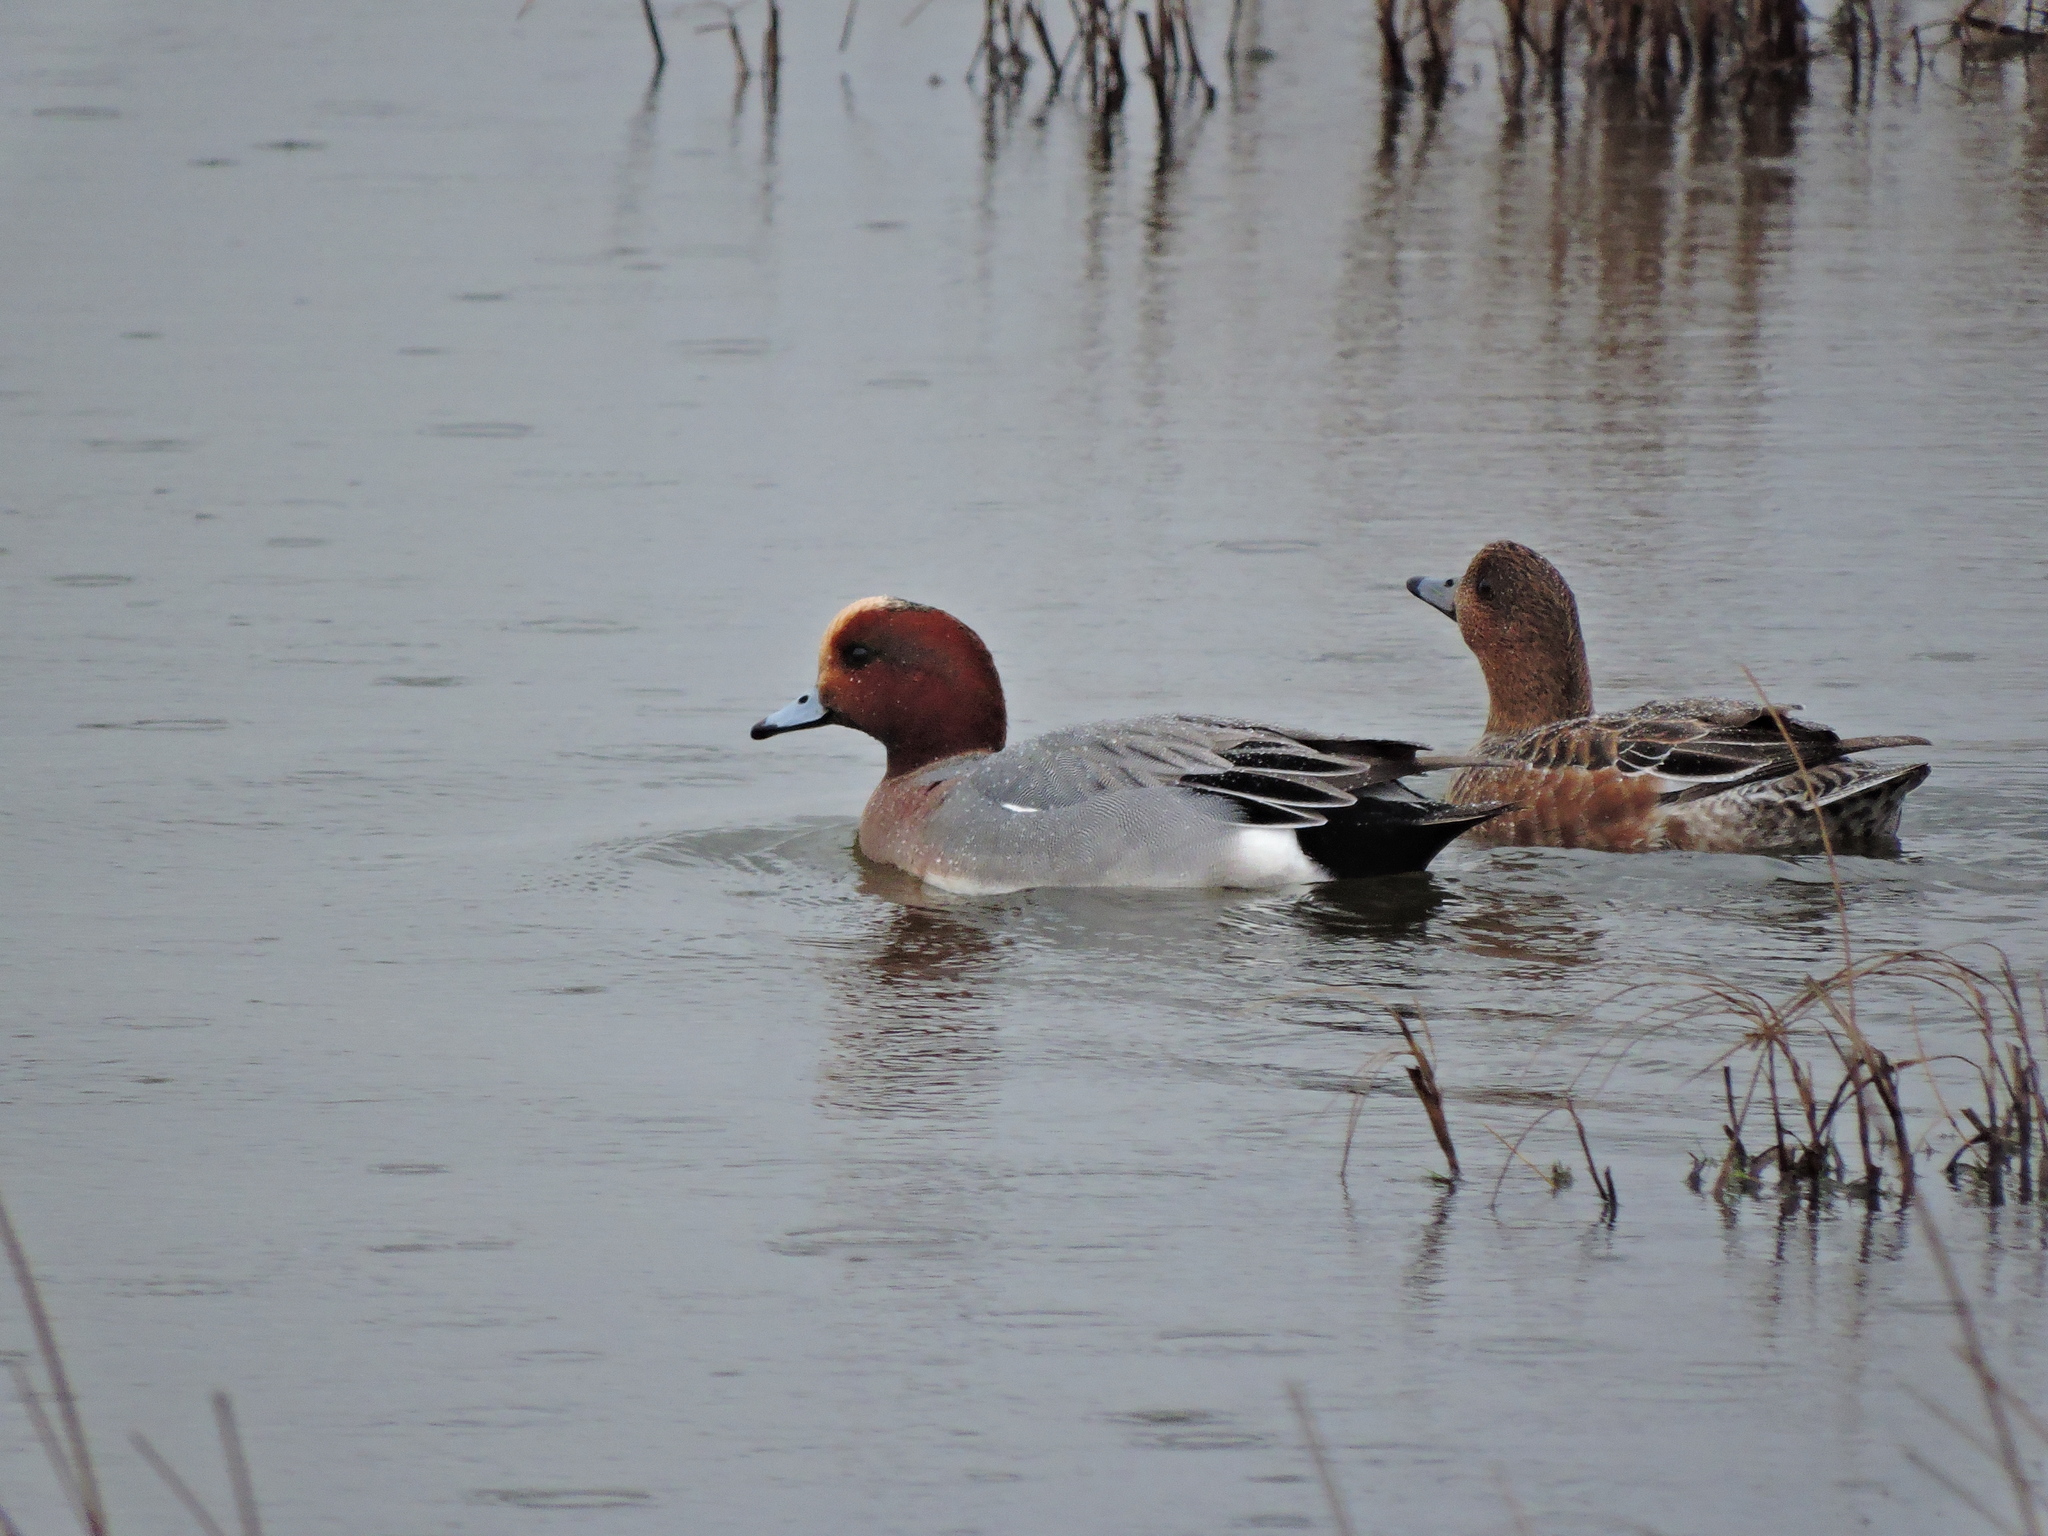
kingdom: Animalia
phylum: Chordata
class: Aves
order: Anseriformes
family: Anatidae
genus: Mareca
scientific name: Mareca penelope
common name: Eurasian wigeon
